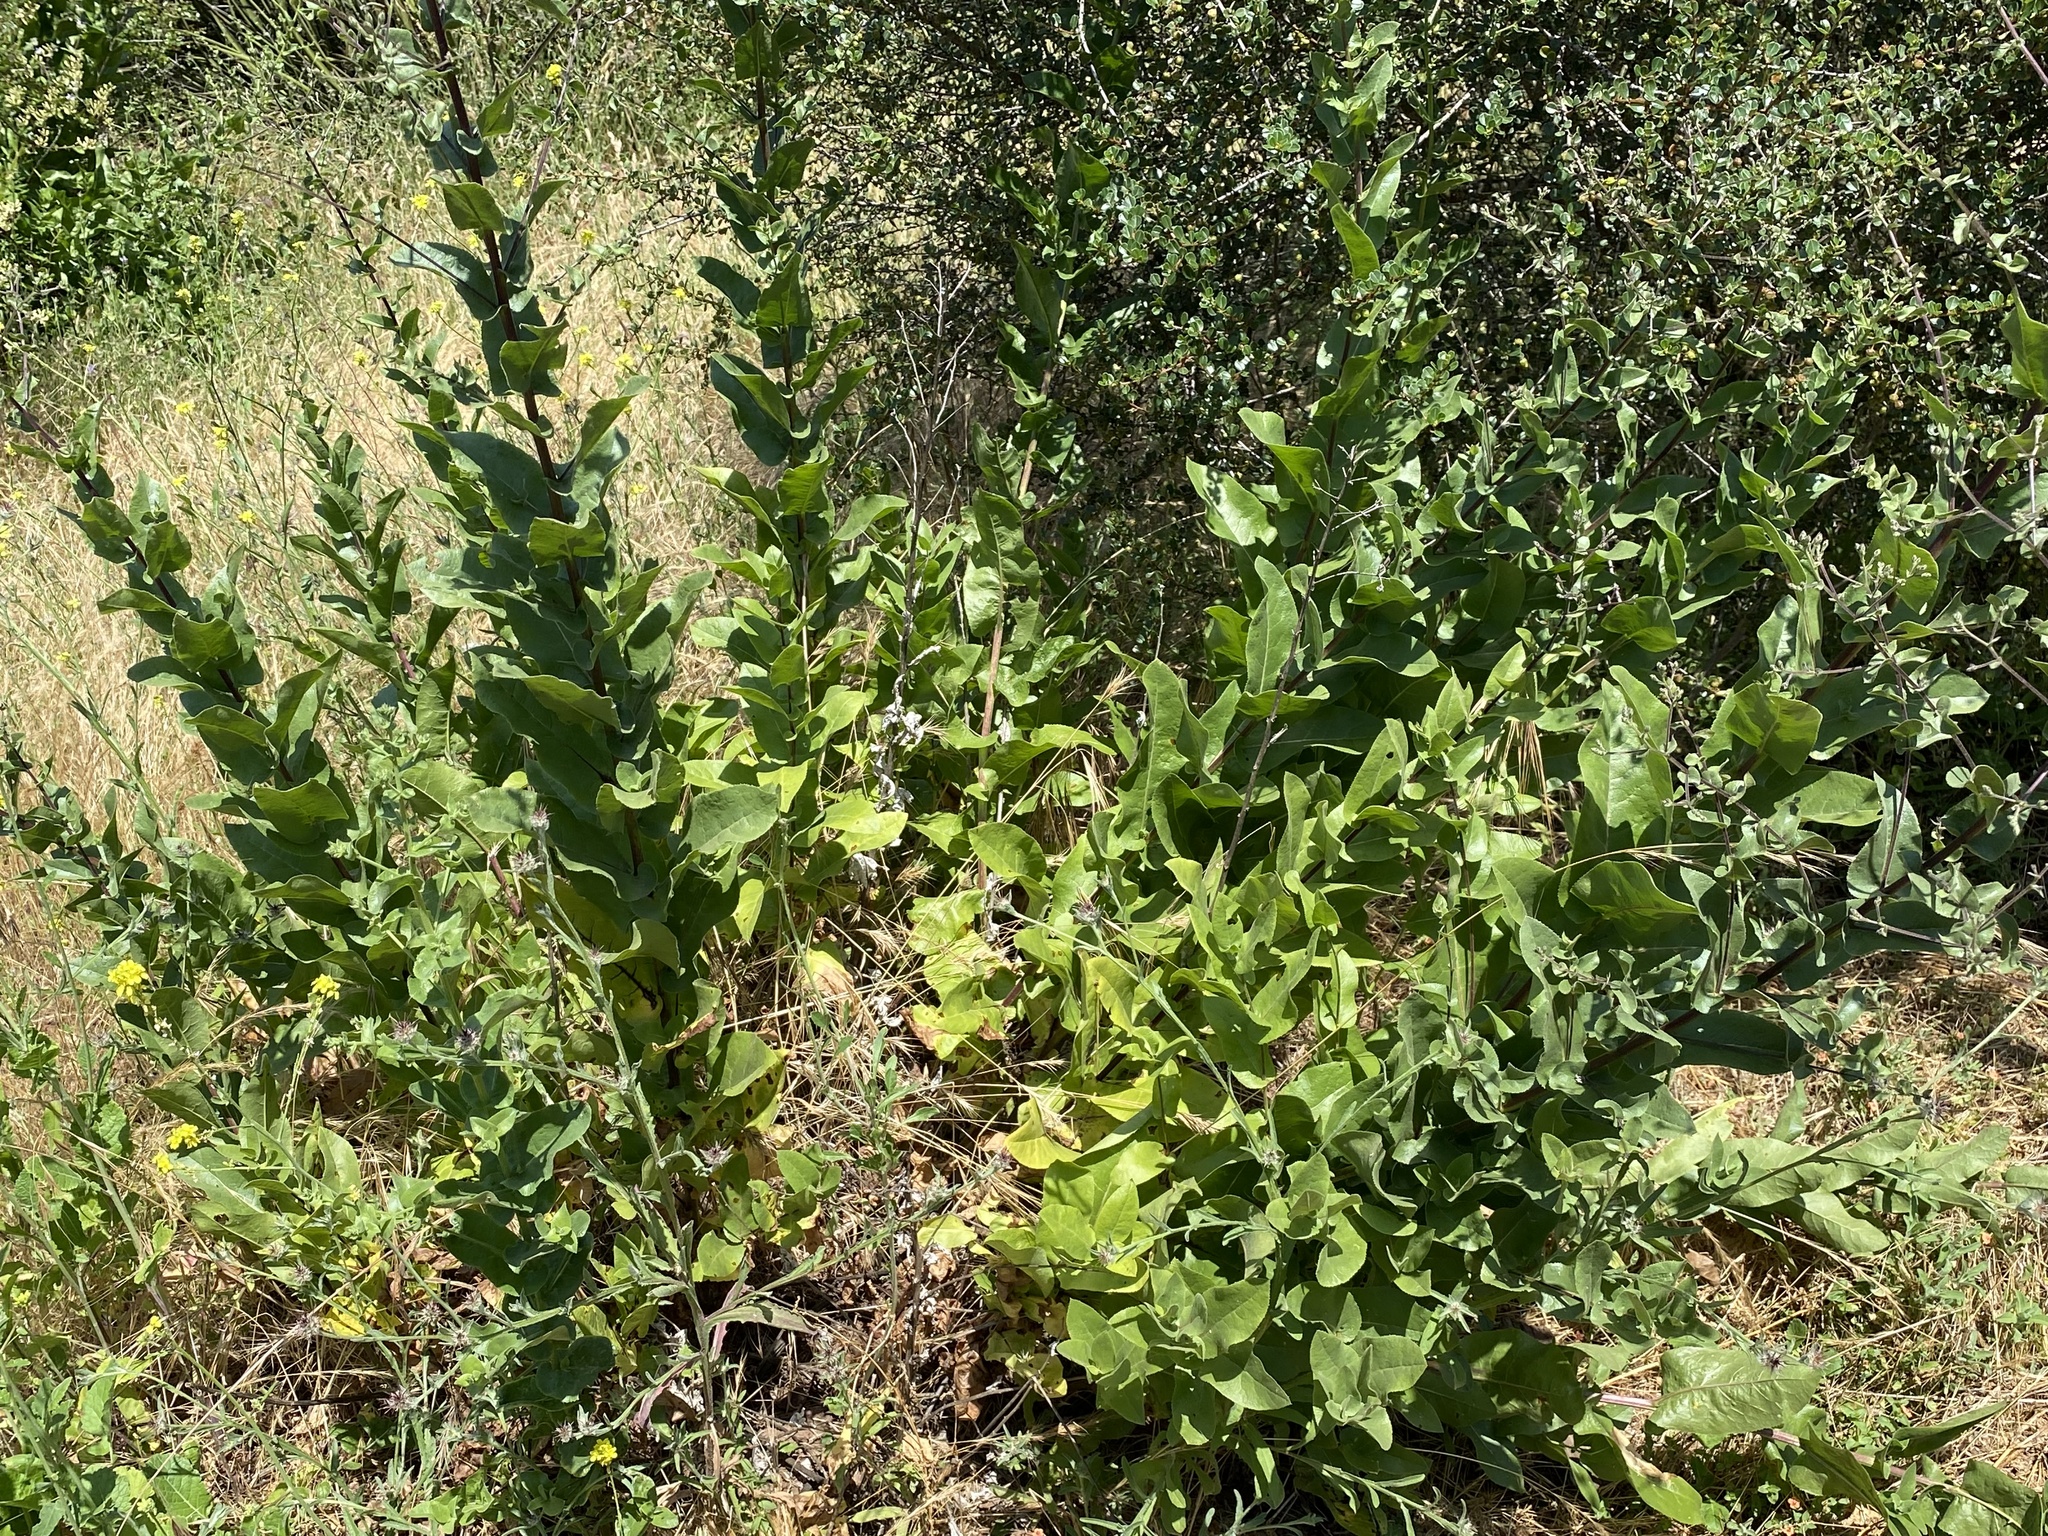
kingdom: Plantae
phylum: Tracheophyta
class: Magnoliopsida
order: Asterales
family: Asteraceae
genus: Acourtia
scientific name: Acourtia microcephala
